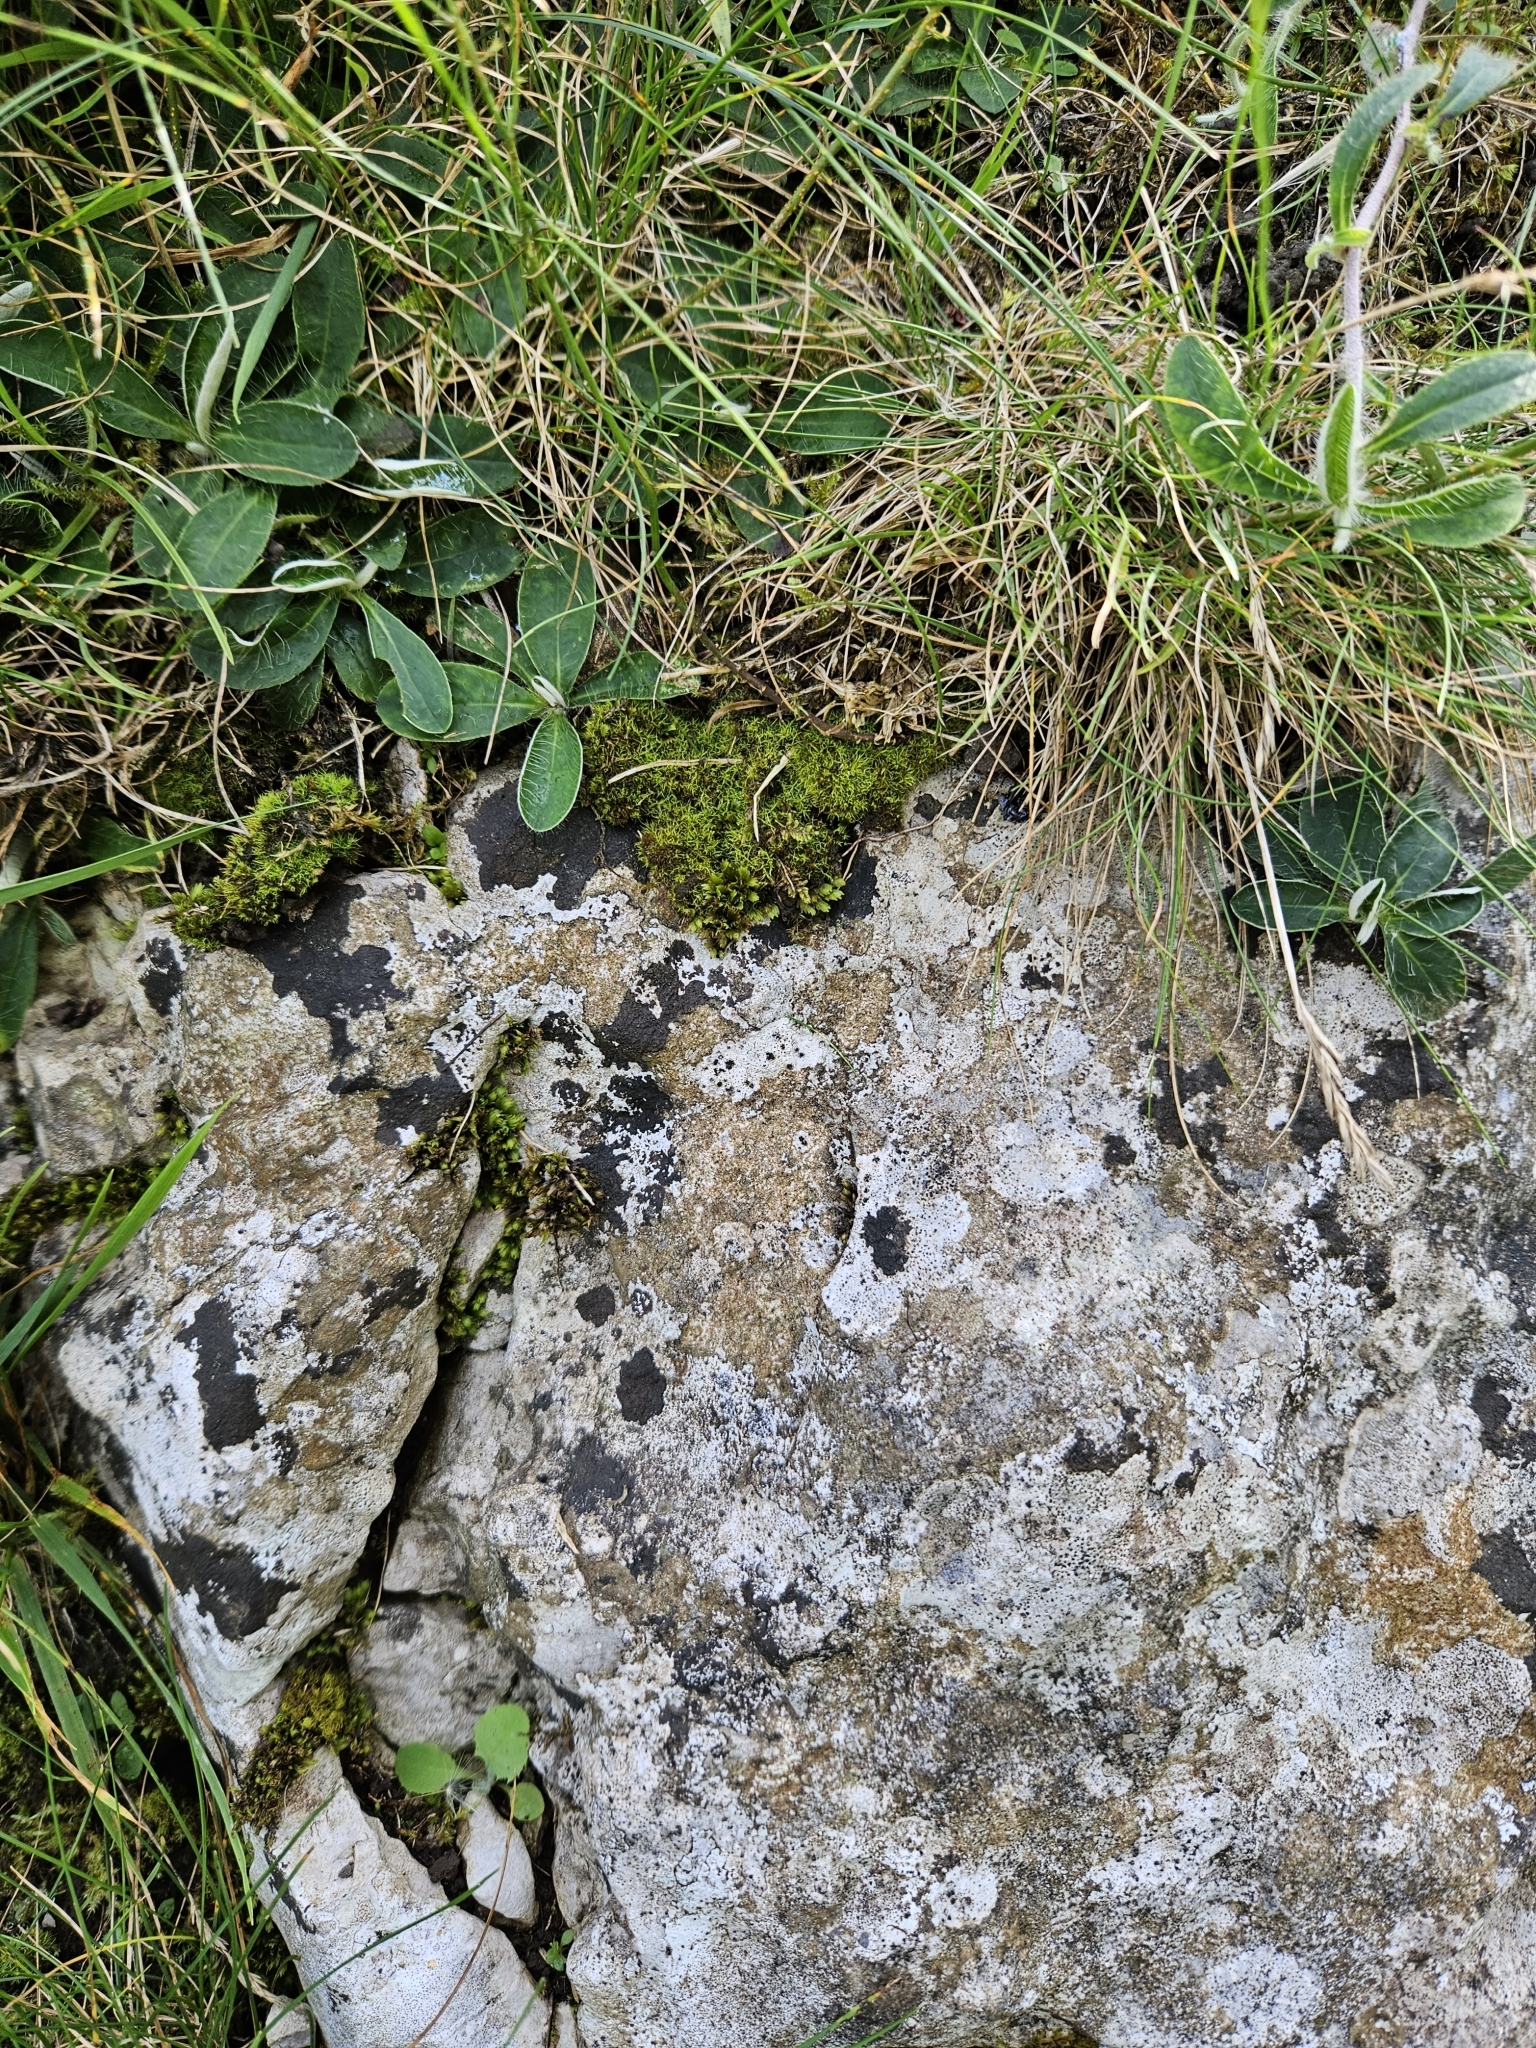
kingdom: Plantae
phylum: Bryophyta
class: Bryopsida
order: Dicranales
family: Fissidentaceae
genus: Fissidens
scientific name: Fissidens dubius
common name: Rock pocket moss
